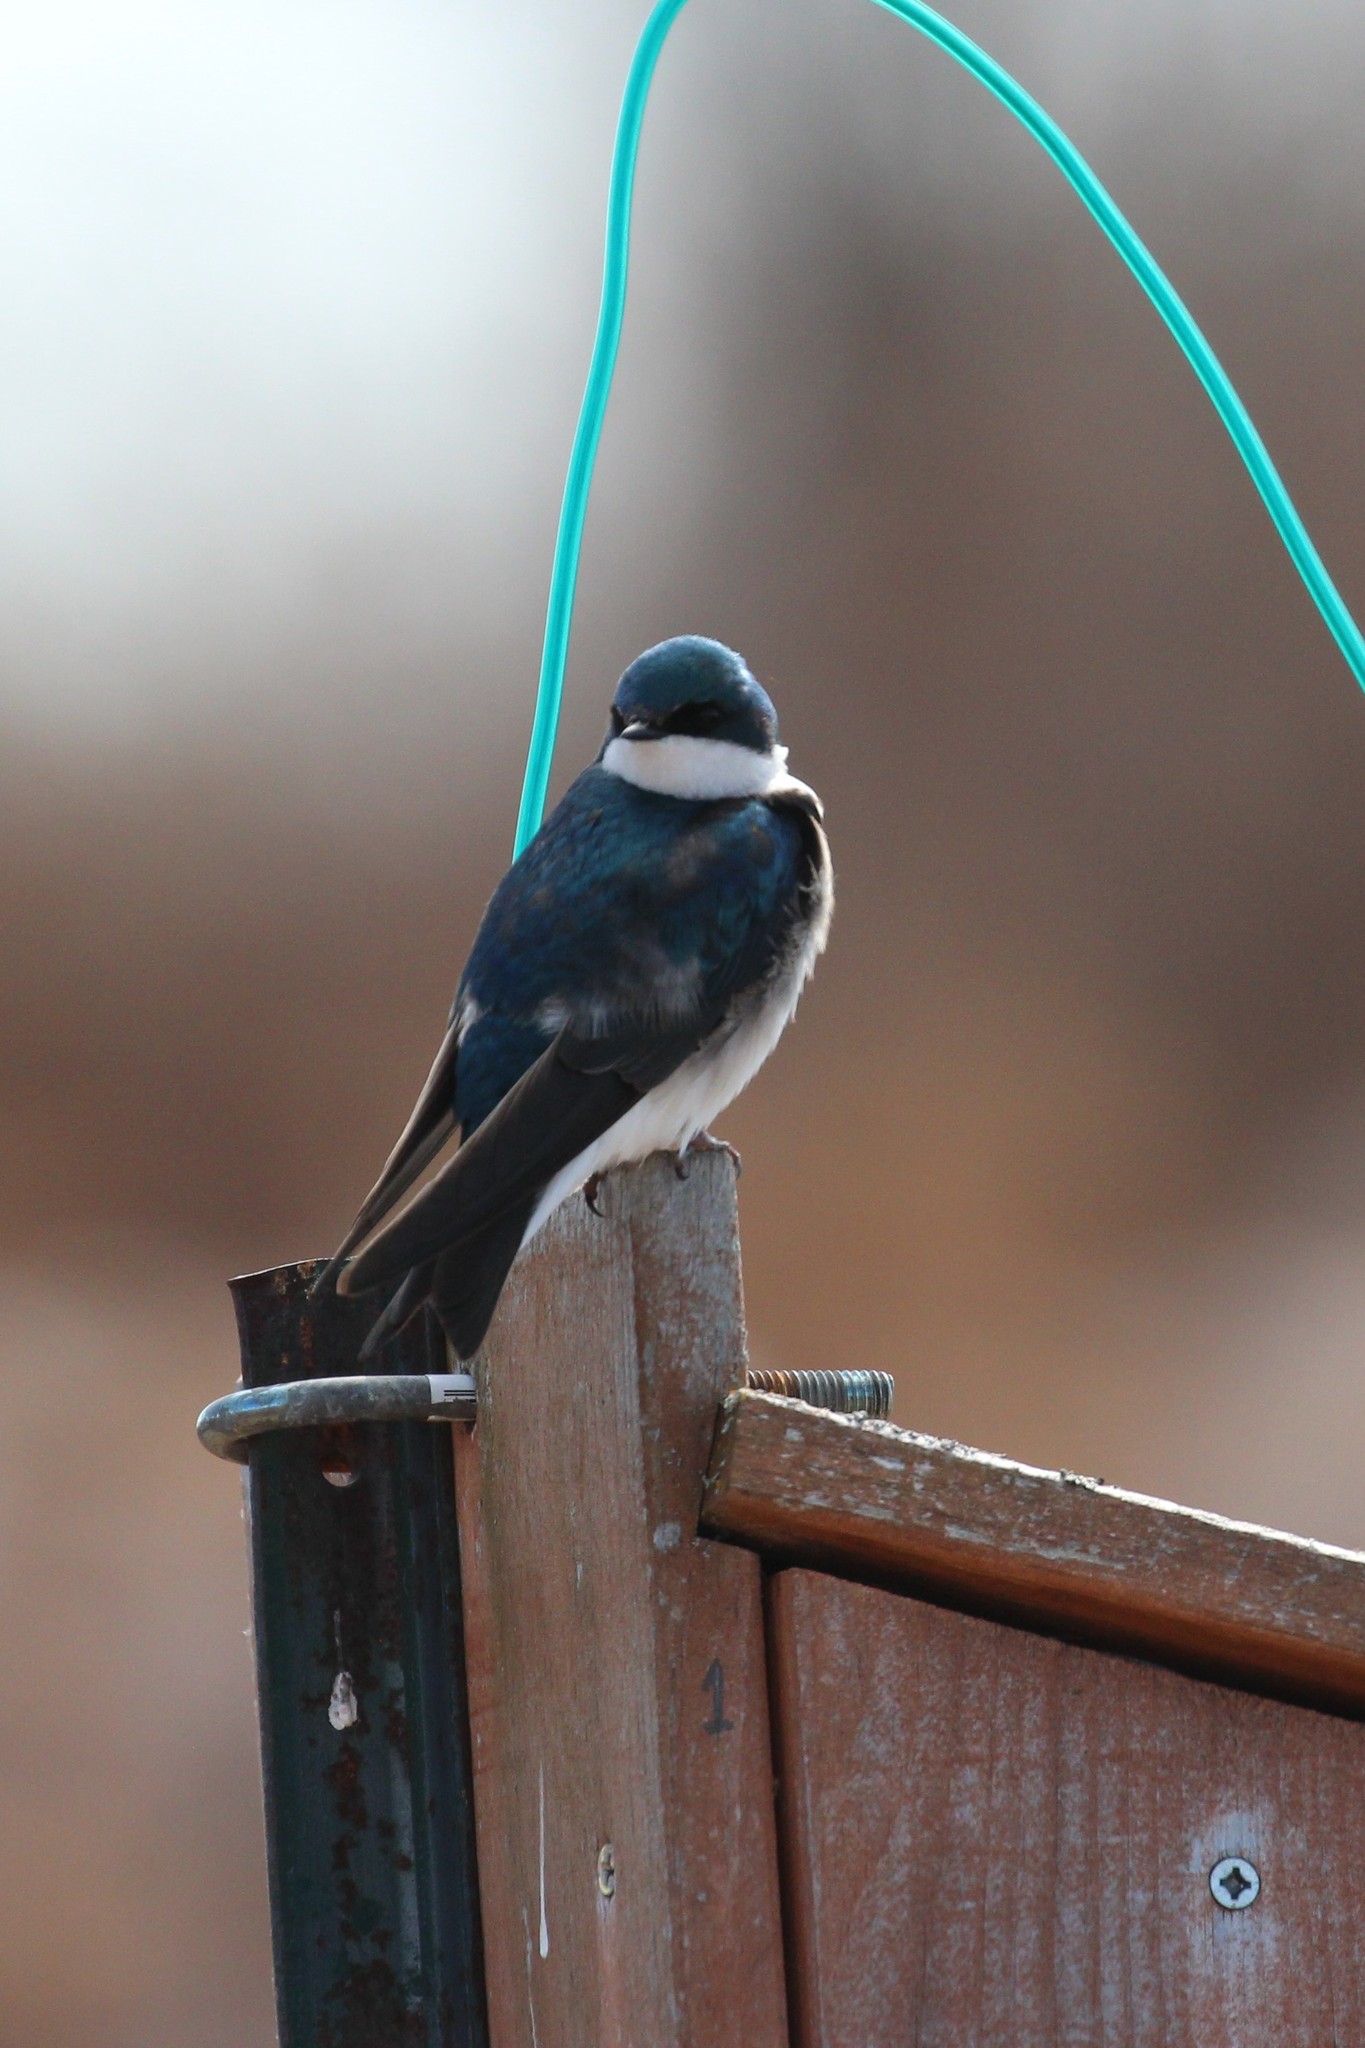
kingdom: Animalia
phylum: Chordata
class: Aves
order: Passeriformes
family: Hirundinidae
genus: Tachycineta
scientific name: Tachycineta bicolor
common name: Tree swallow
